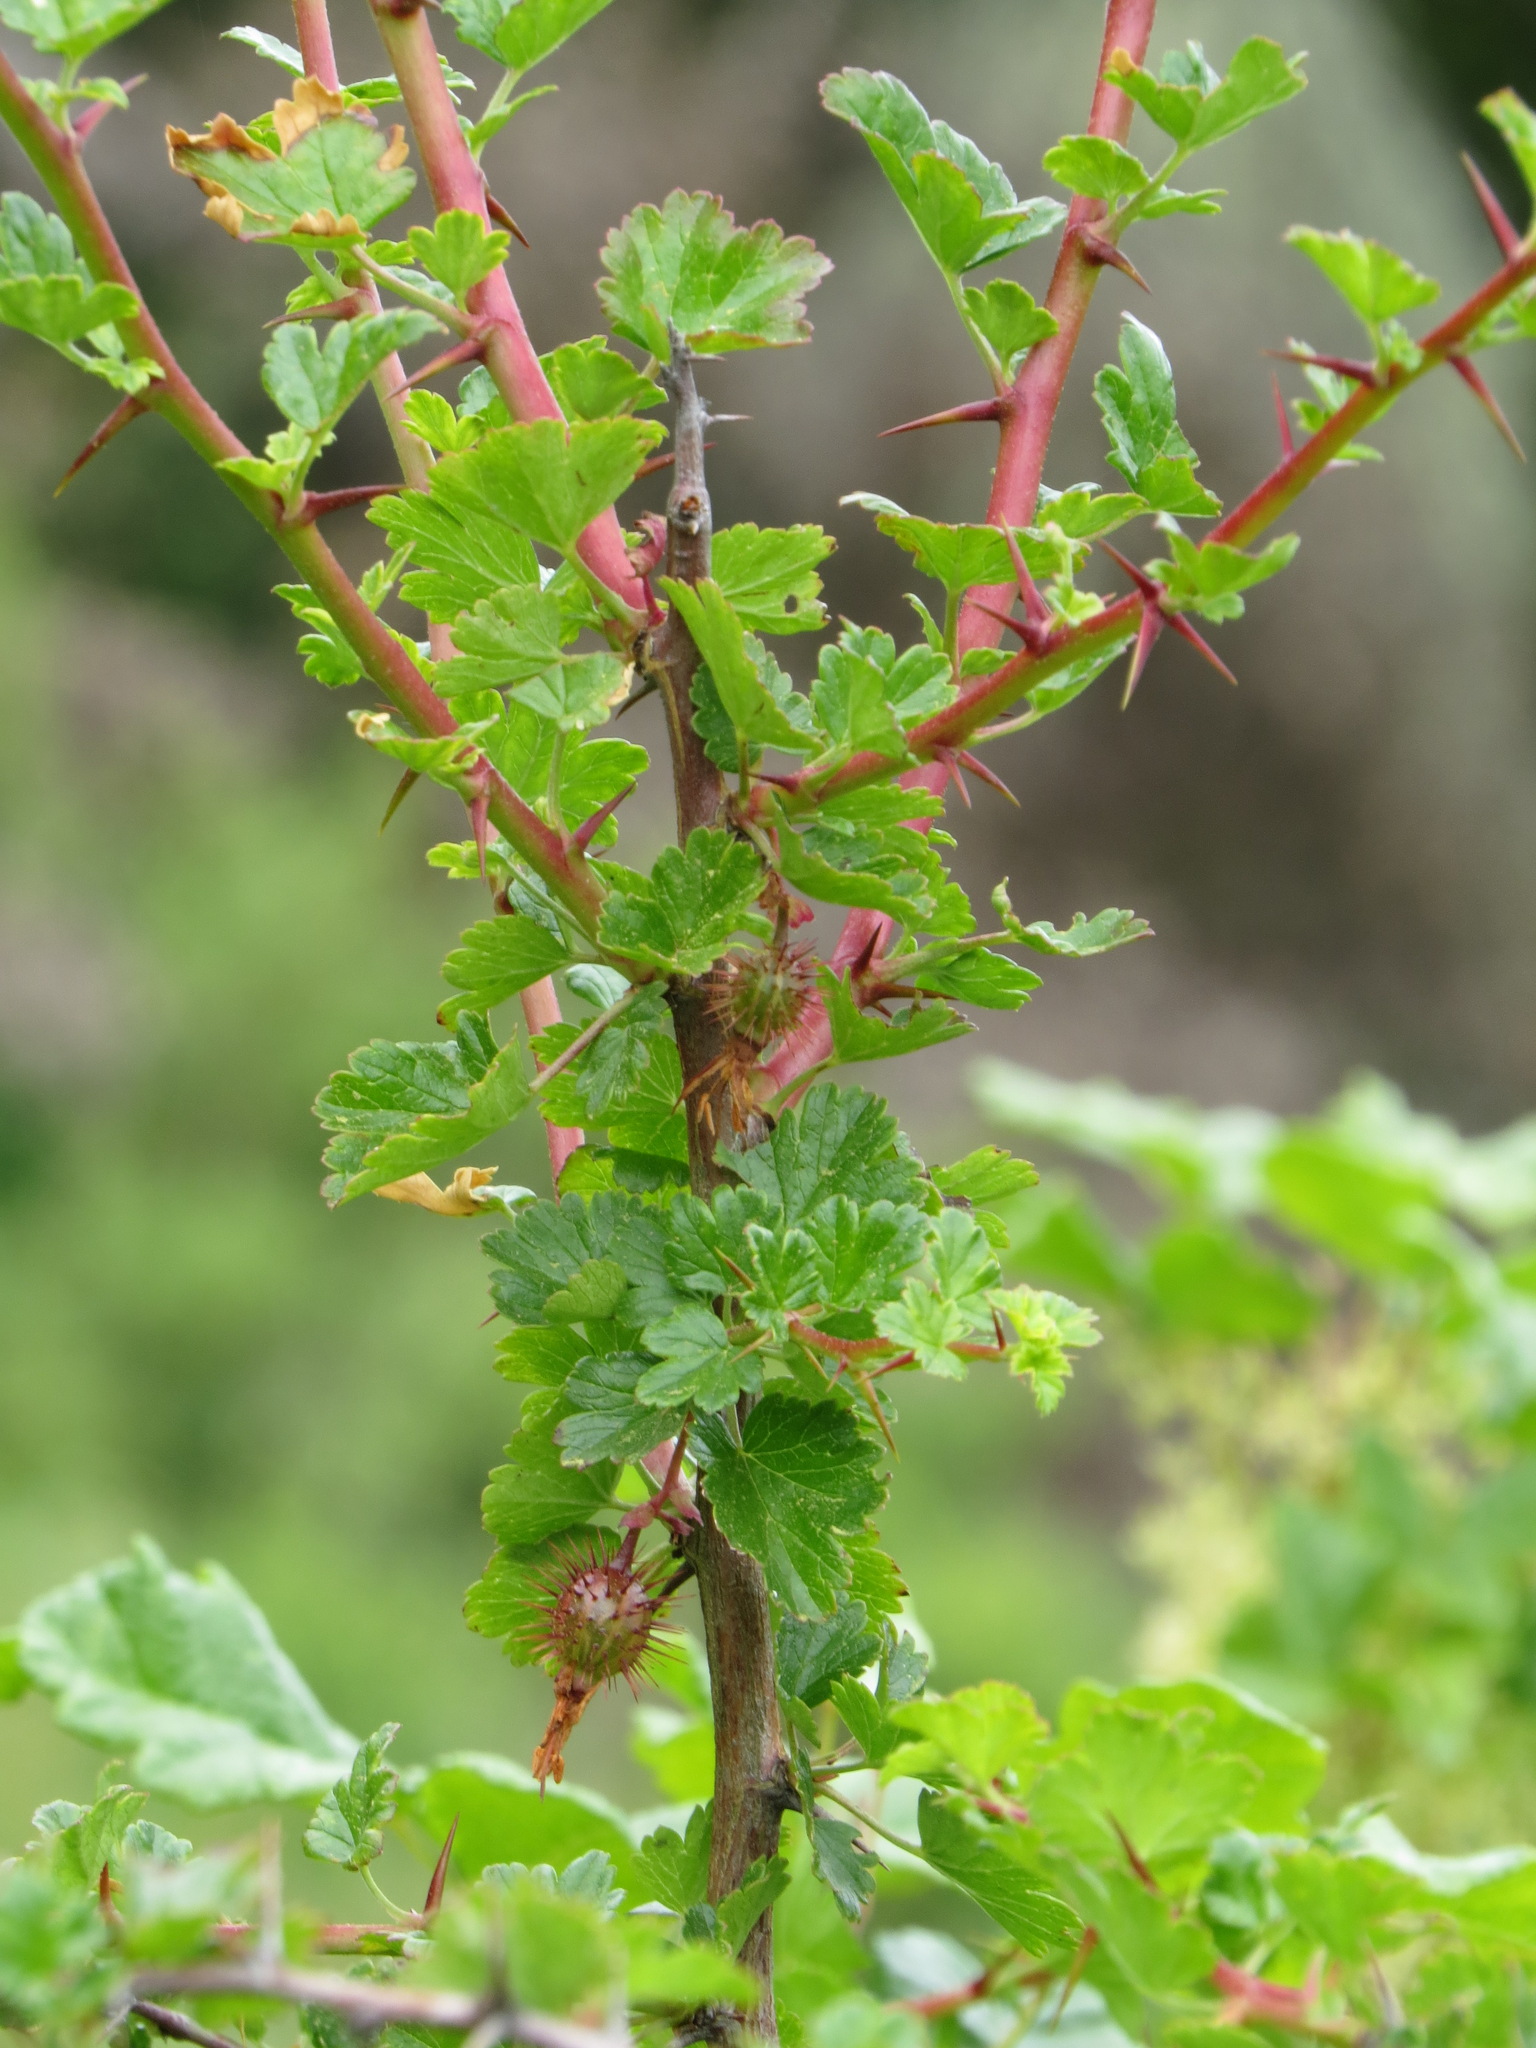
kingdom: Plantae
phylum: Tracheophyta
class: Magnoliopsida
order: Saxifragales
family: Grossulariaceae
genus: Ribes
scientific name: Ribes californicum
